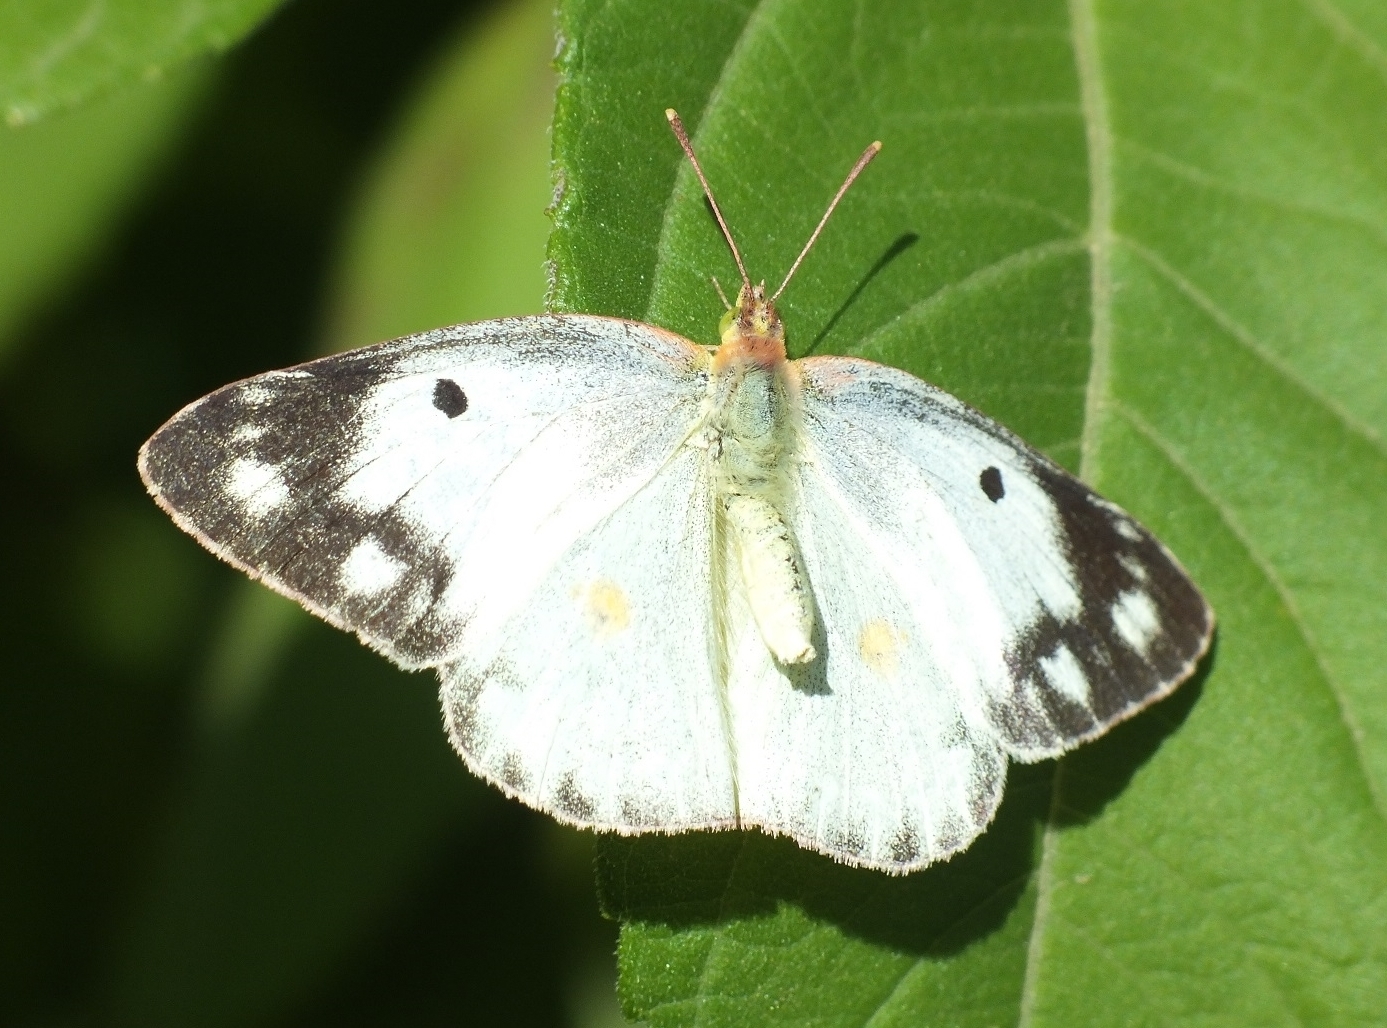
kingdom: Animalia
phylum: Arthropoda
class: Insecta
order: Lepidoptera
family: Pieridae
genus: Colias
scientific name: Colias erate
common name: Eastern pale clouded yellow
